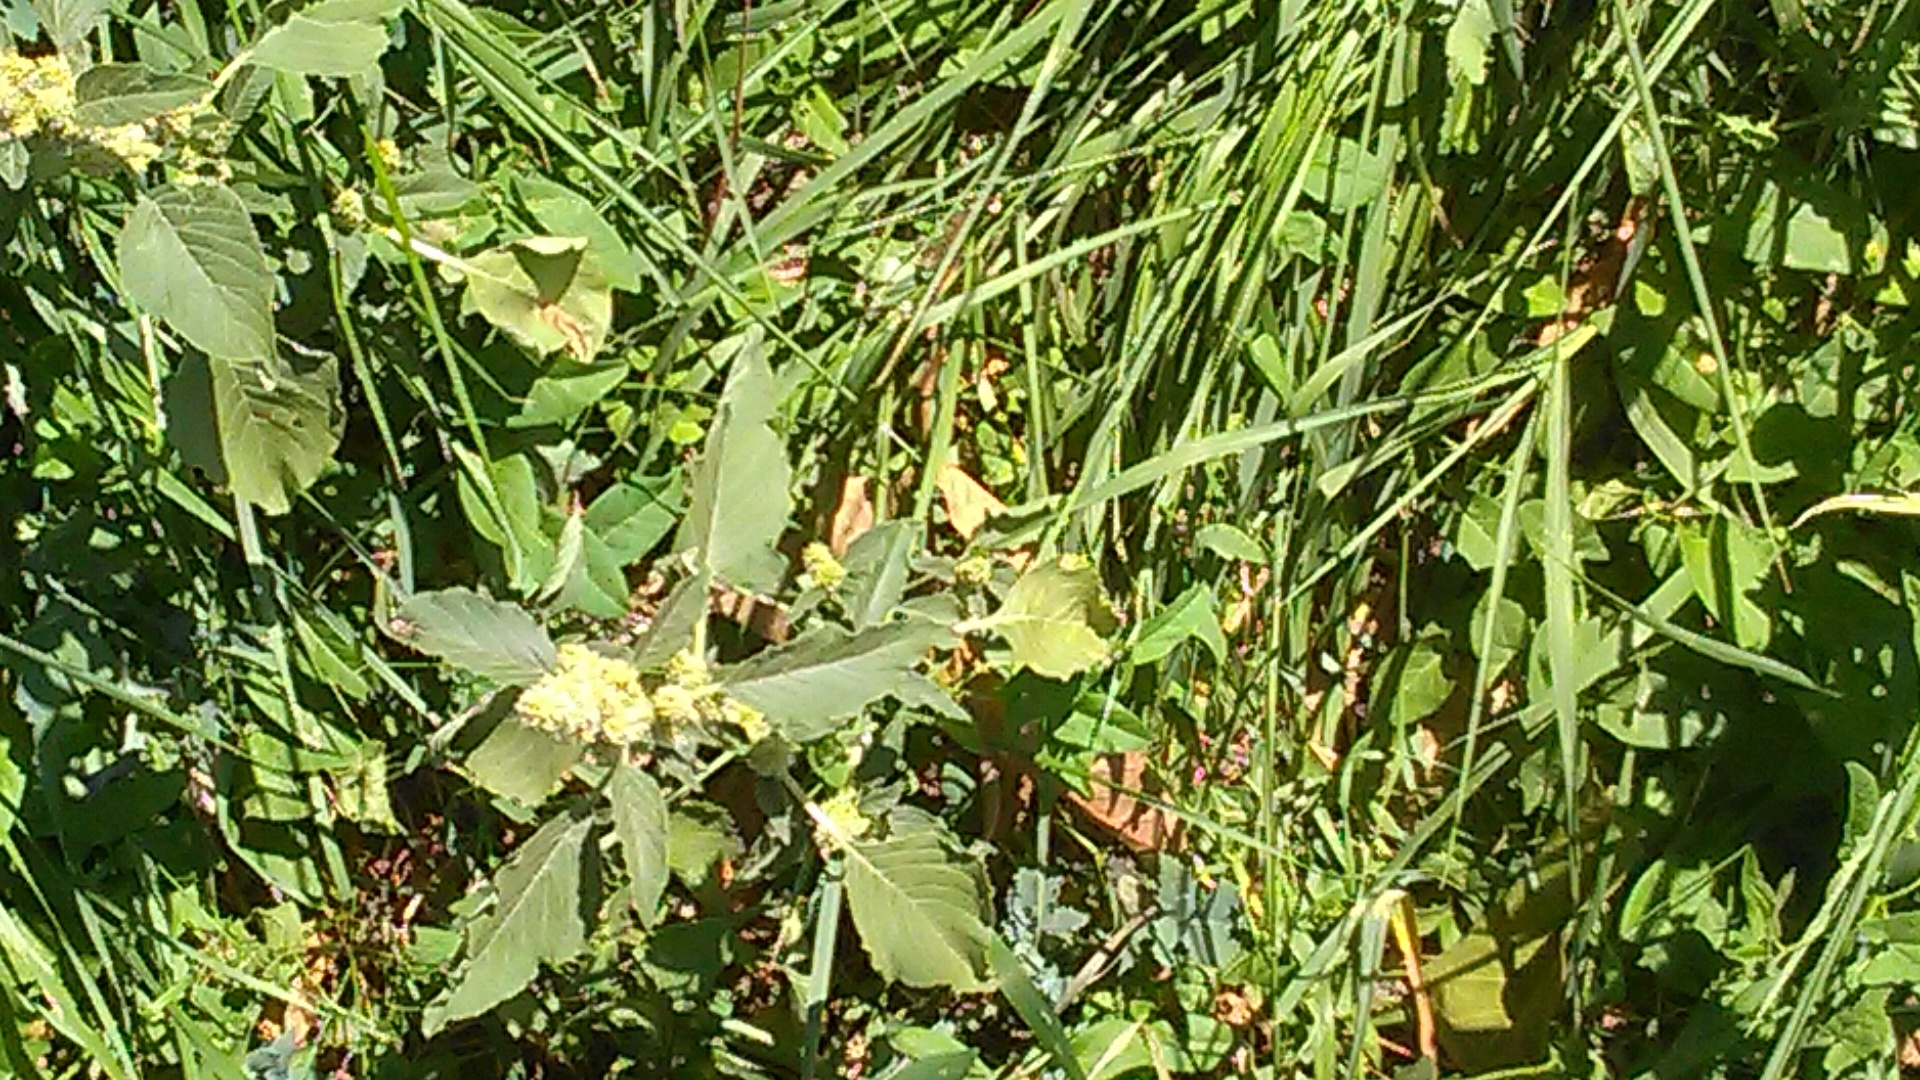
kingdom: Plantae
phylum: Tracheophyta
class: Magnoliopsida
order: Caryophyllales
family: Amaranthaceae
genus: Amaranthus
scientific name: Amaranthus retroflexus
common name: Redroot amaranth
